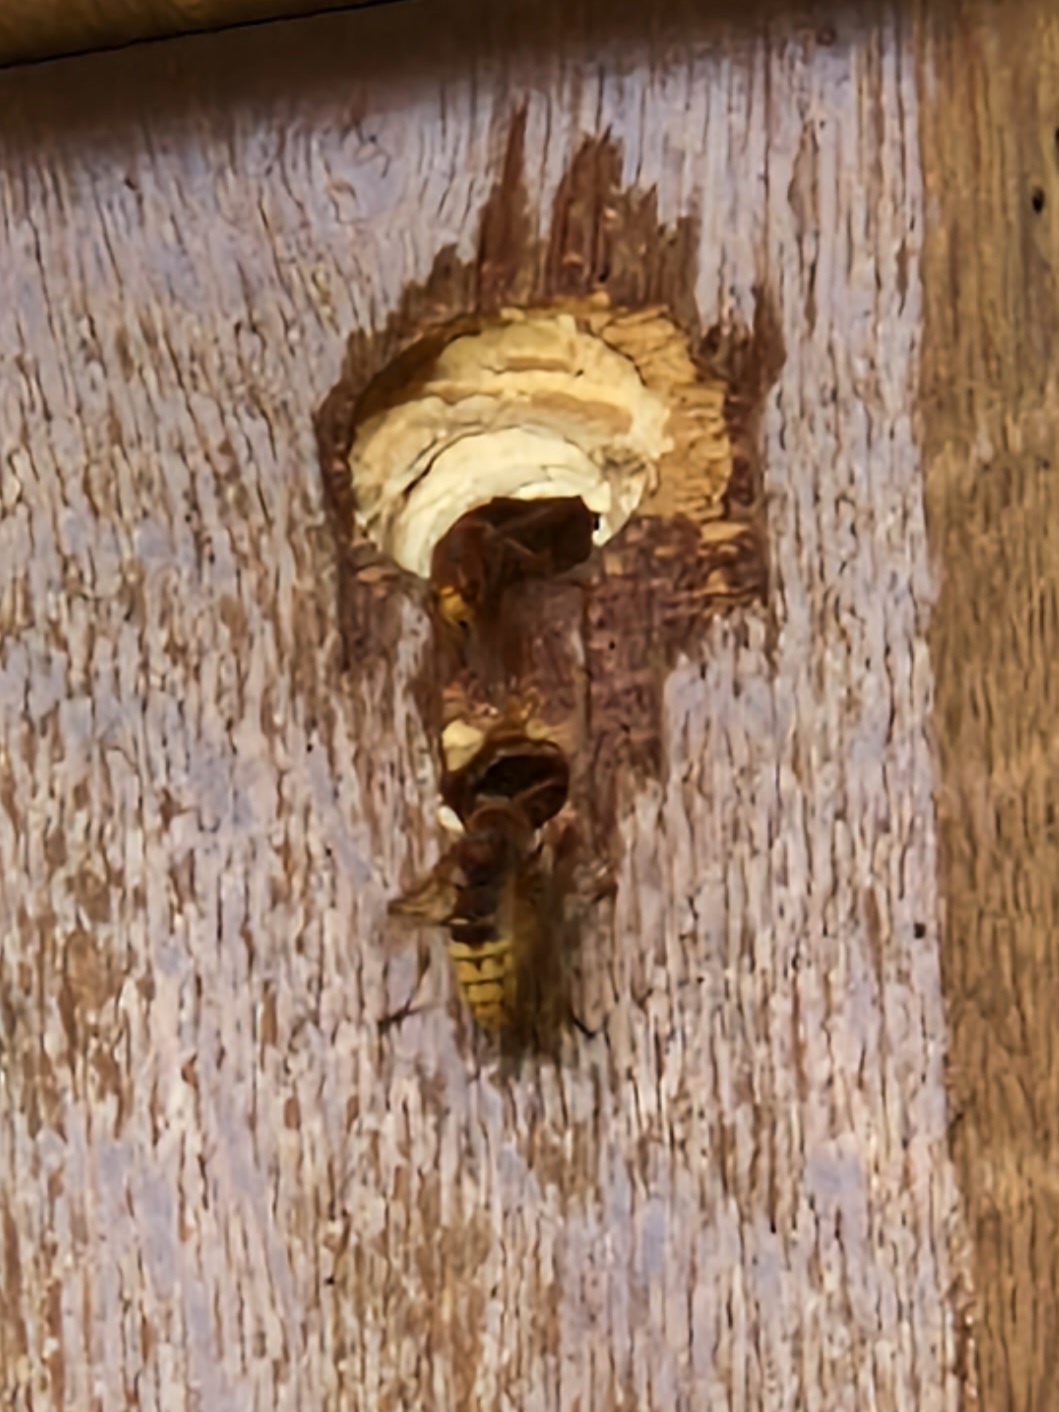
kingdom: Animalia
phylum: Arthropoda
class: Insecta
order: Hymenoptera
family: Vespidae
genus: Vespa
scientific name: Vespa crabro
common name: Hornet
